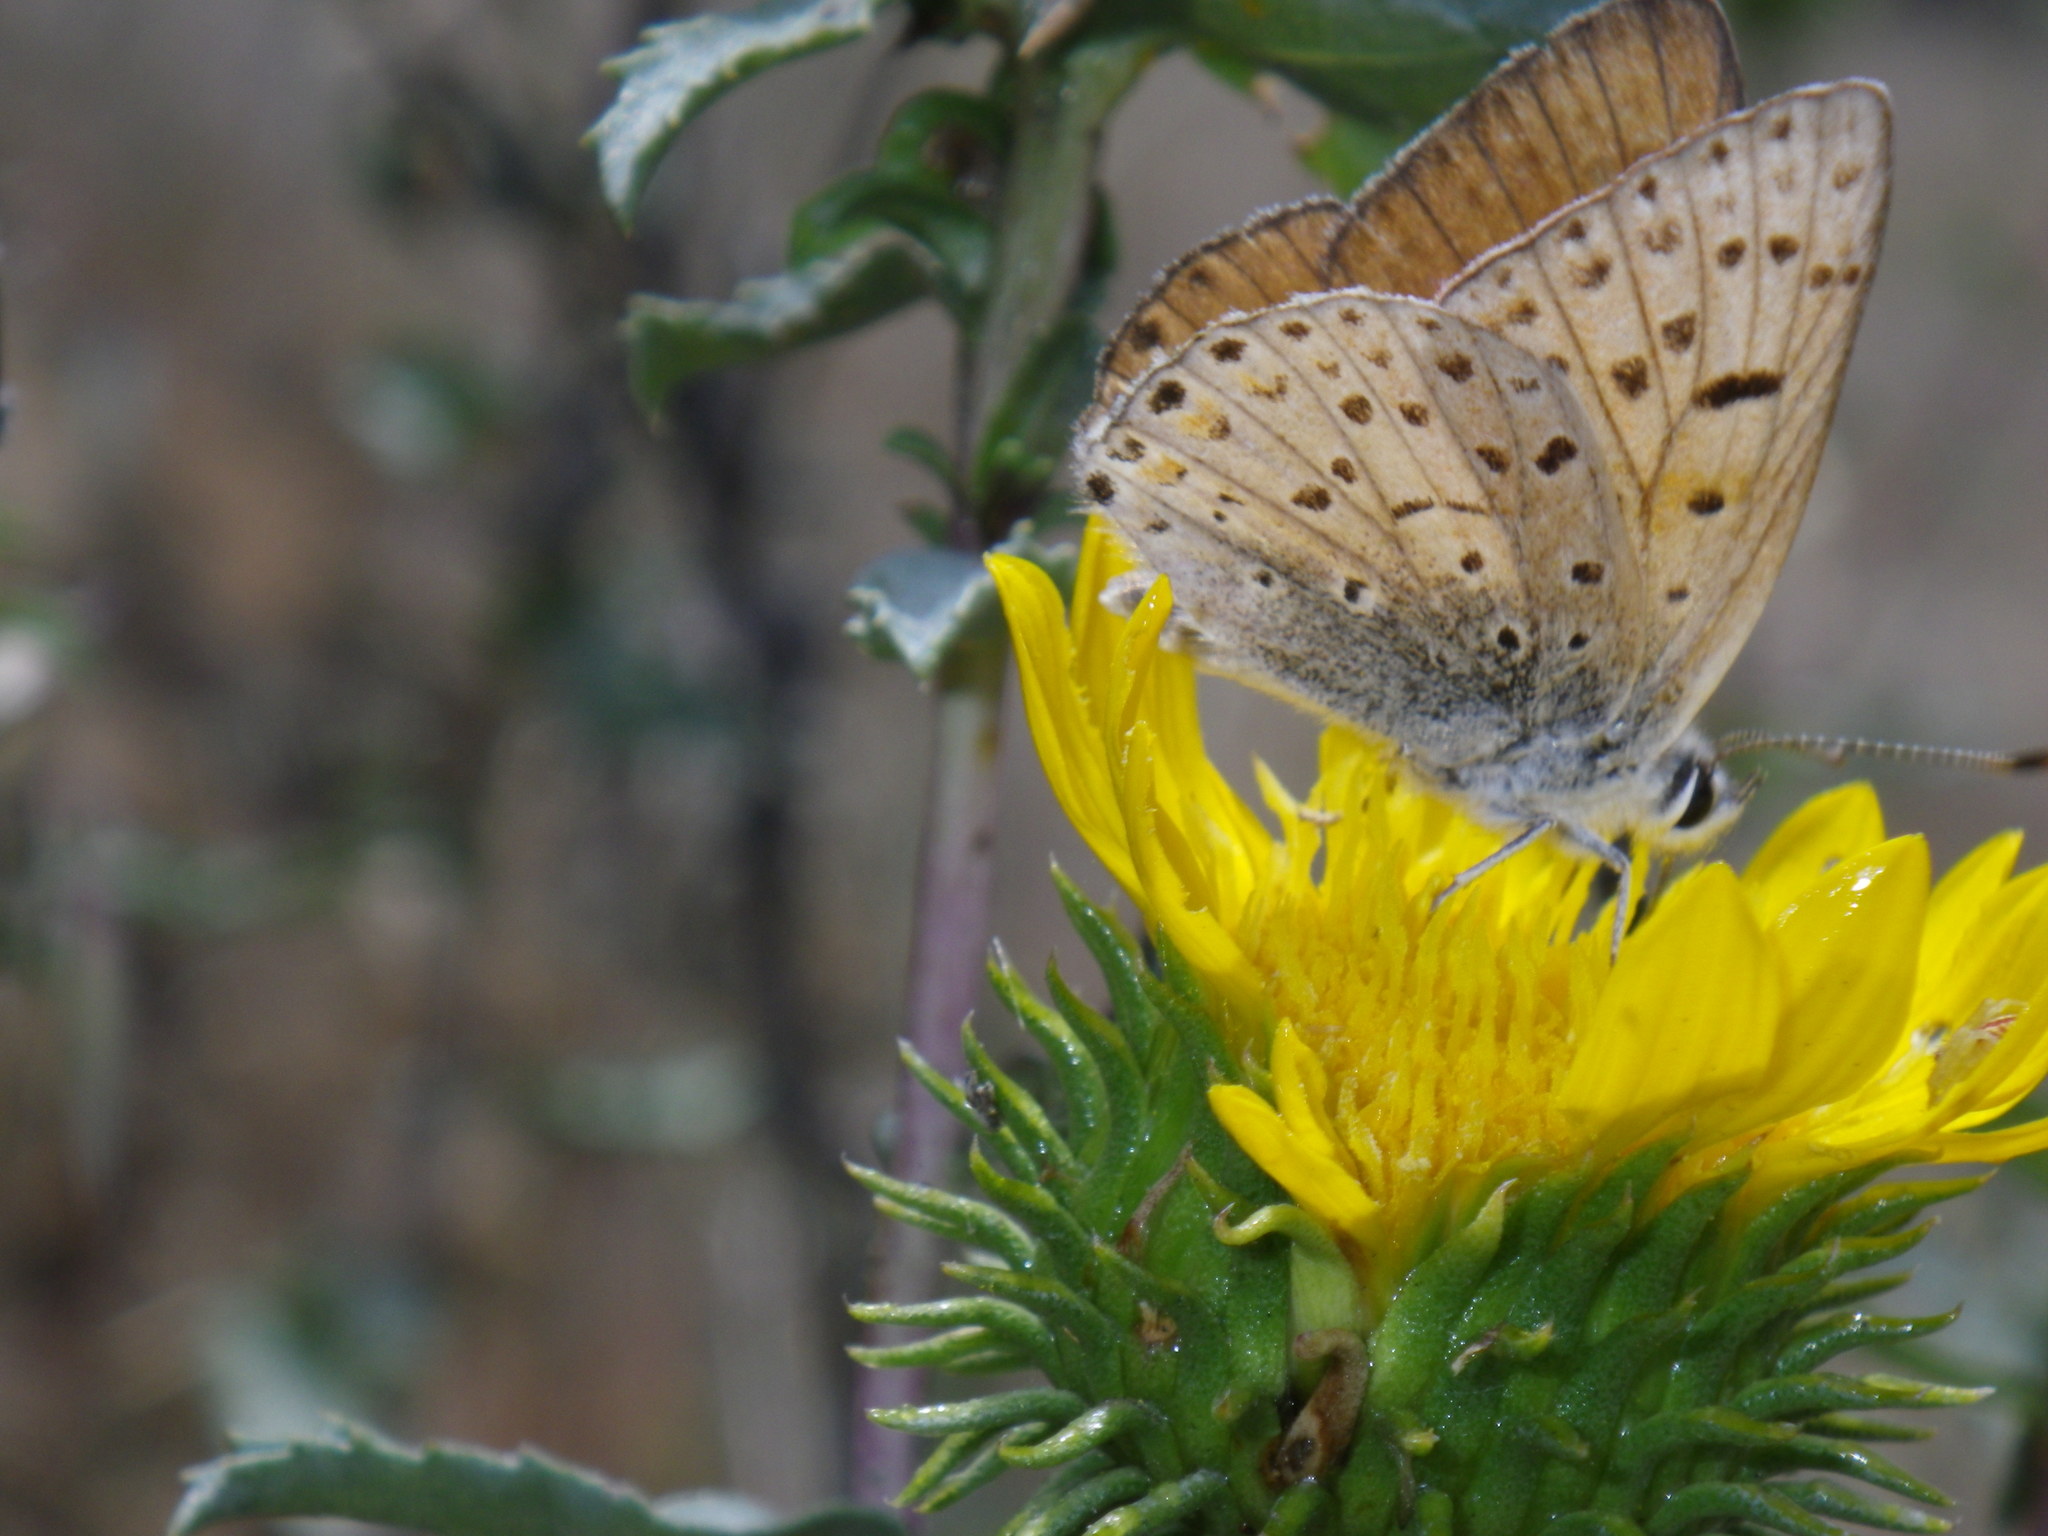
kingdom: Animalia
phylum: Arthropoda
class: Insecta
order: Lepidoptera
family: Lycaenidae
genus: Tharsalea
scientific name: Tharsalea gorgon
